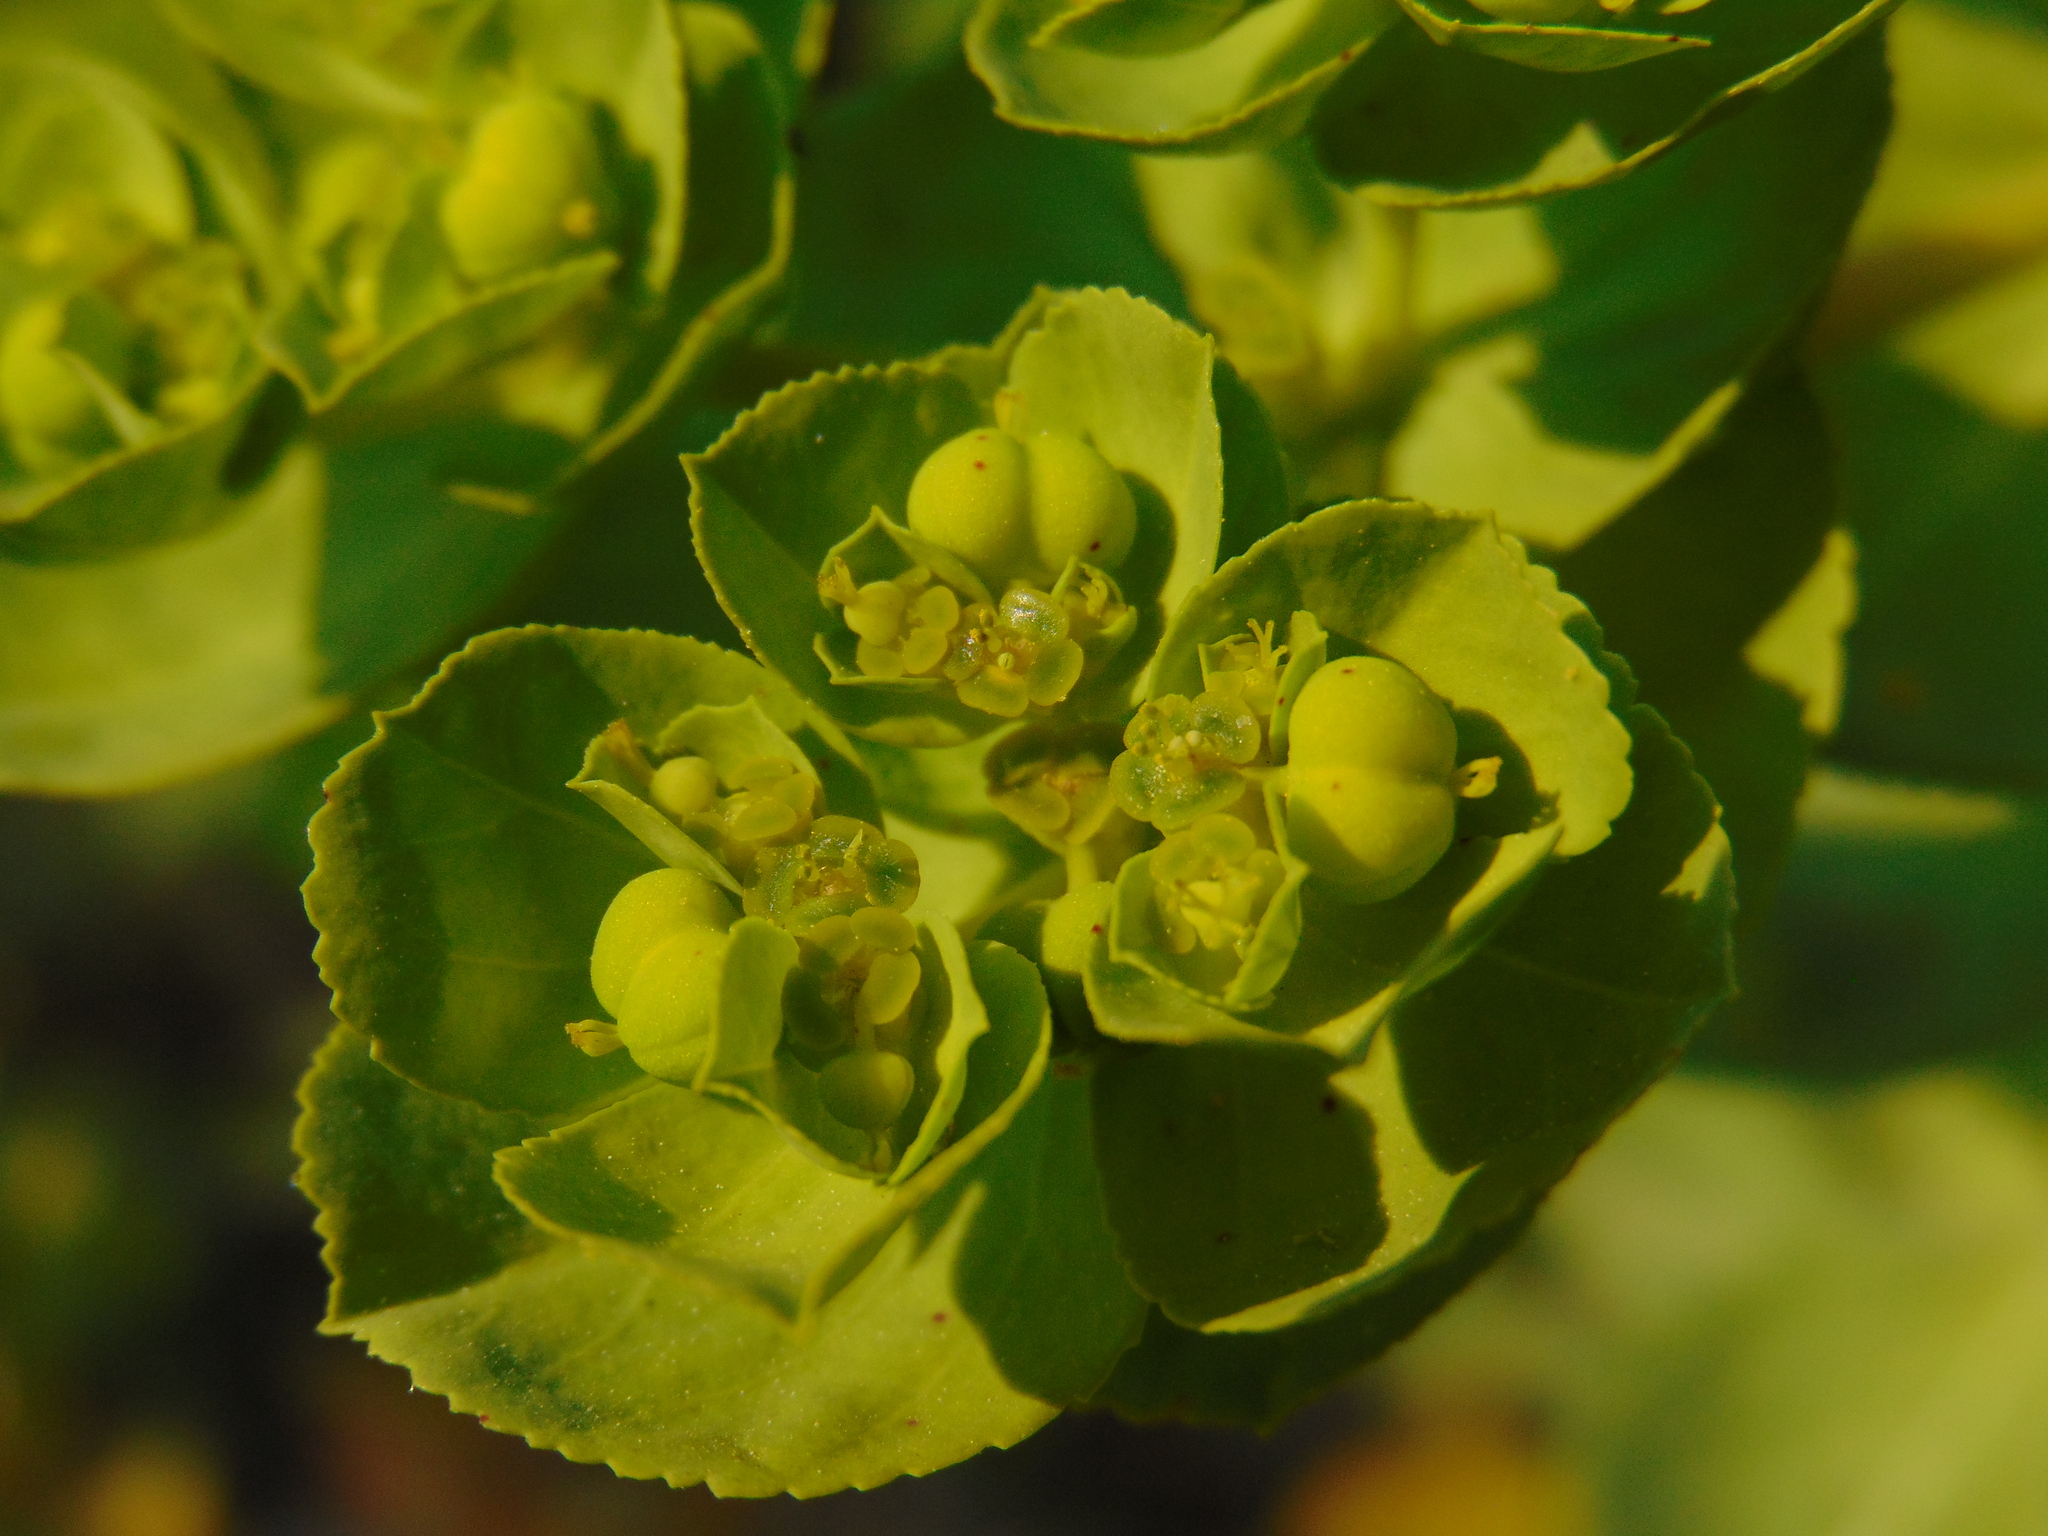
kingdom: Plantae
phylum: Tracheophyta
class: Magnoliopsida
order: Malpighiales
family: Euphorbiaceae
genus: Euphorbia
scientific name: Euphorbia helioscopia
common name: Sun spurge
